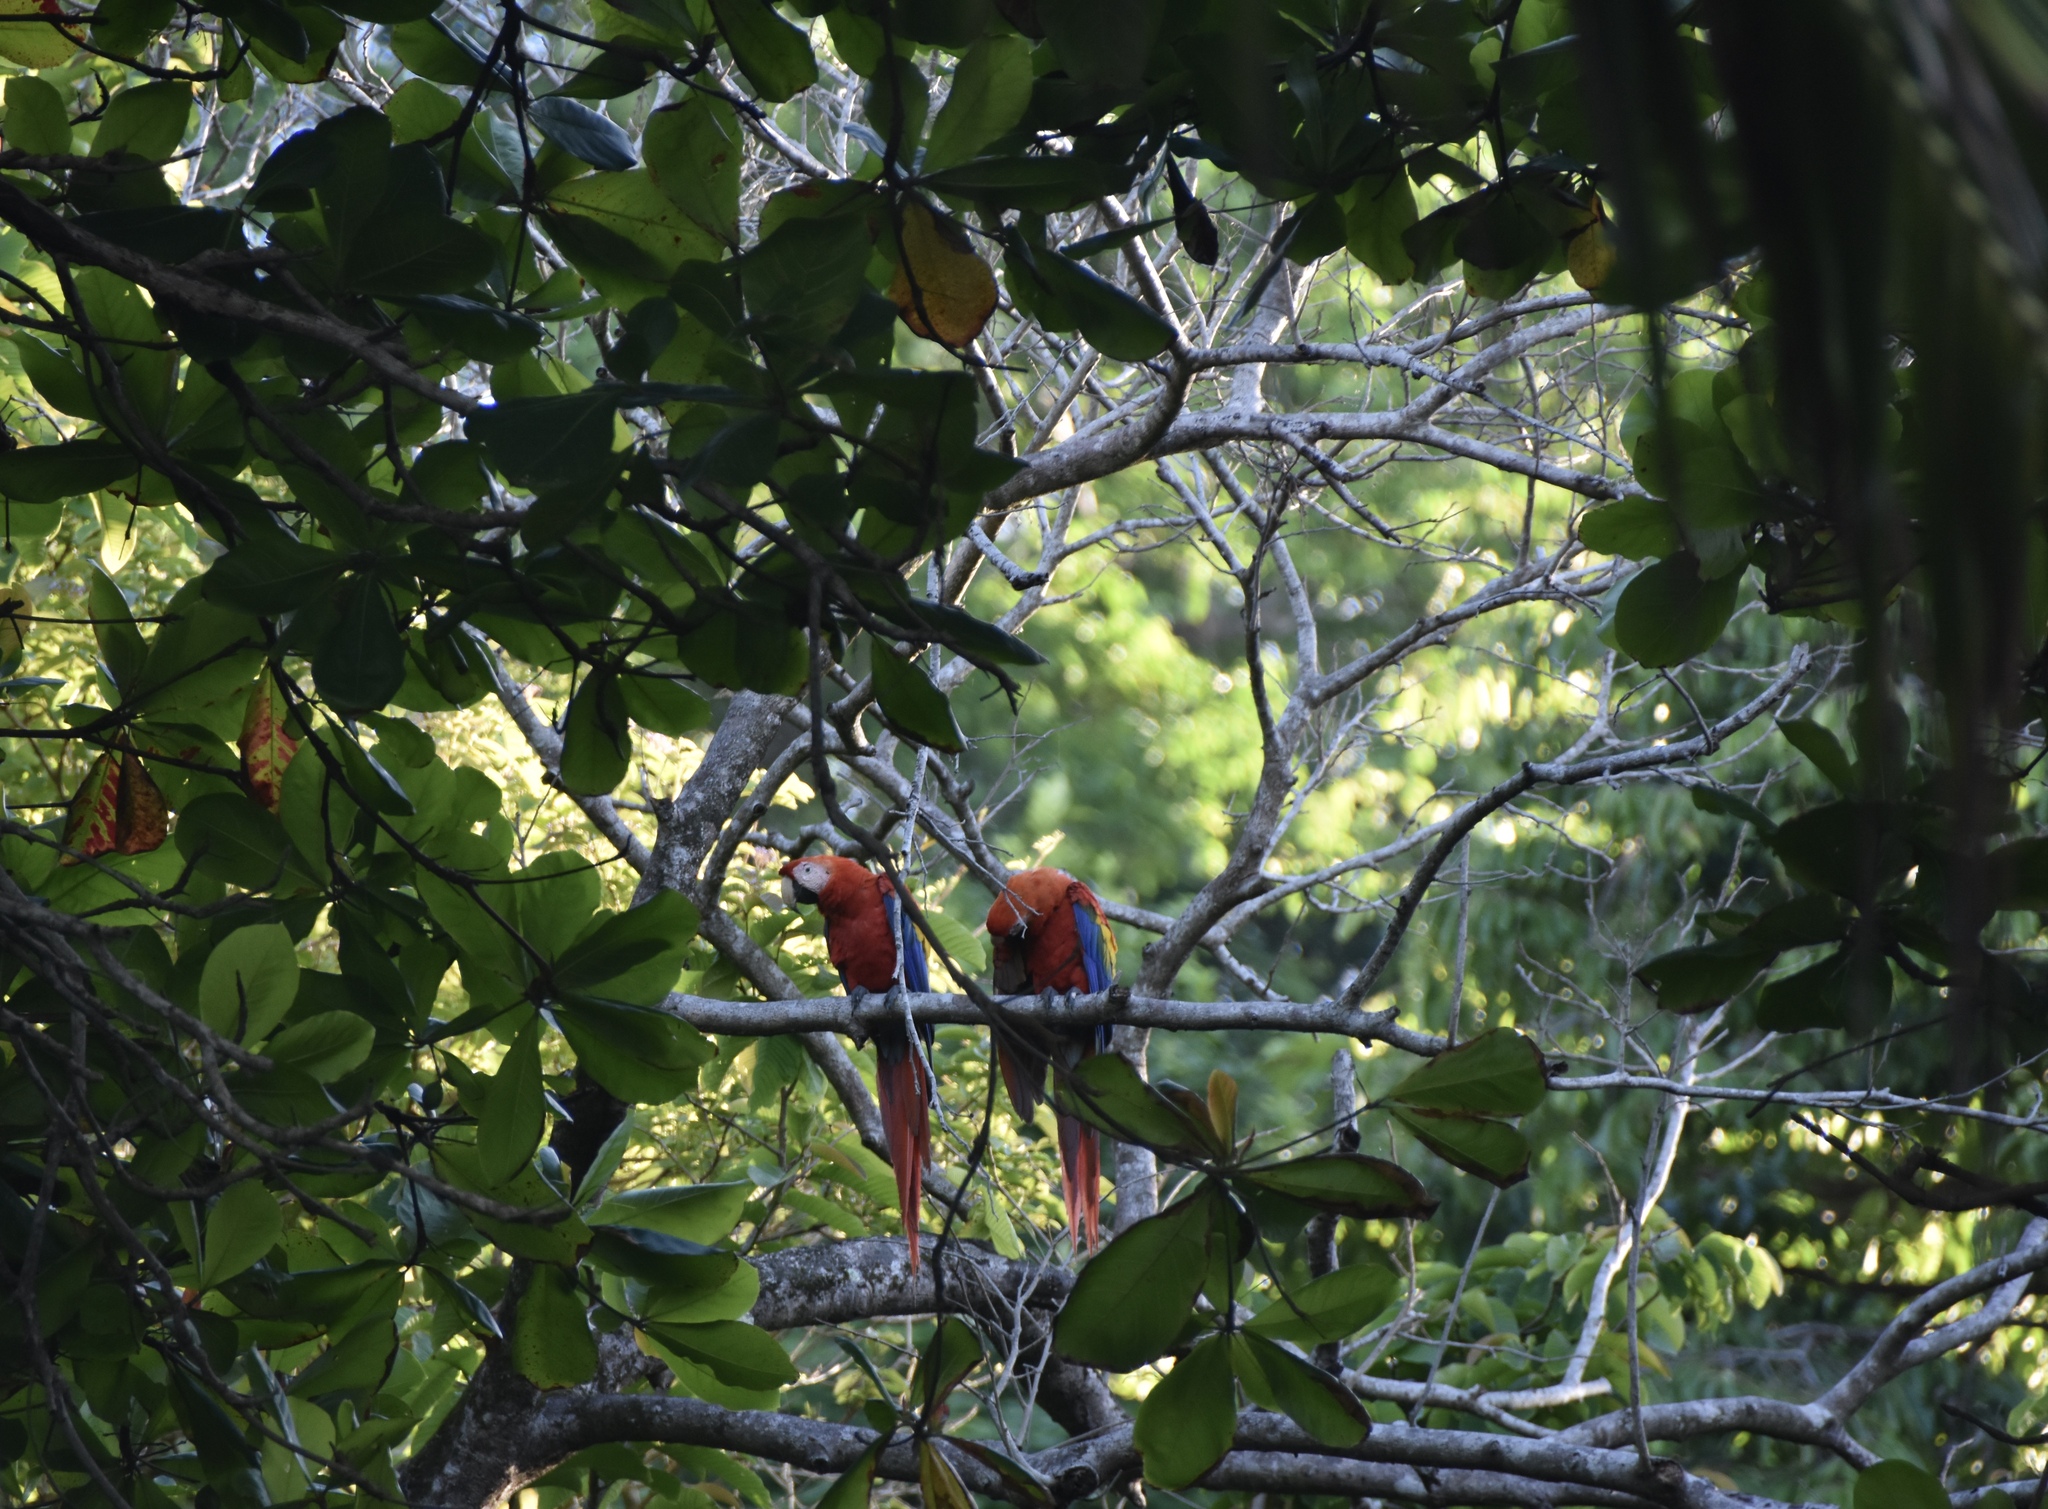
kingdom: Animalia
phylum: Chordata
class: Aves
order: Psittaciformes
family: Psittacidae
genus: Ara
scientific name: Ara macao
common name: Scarlet macaw
